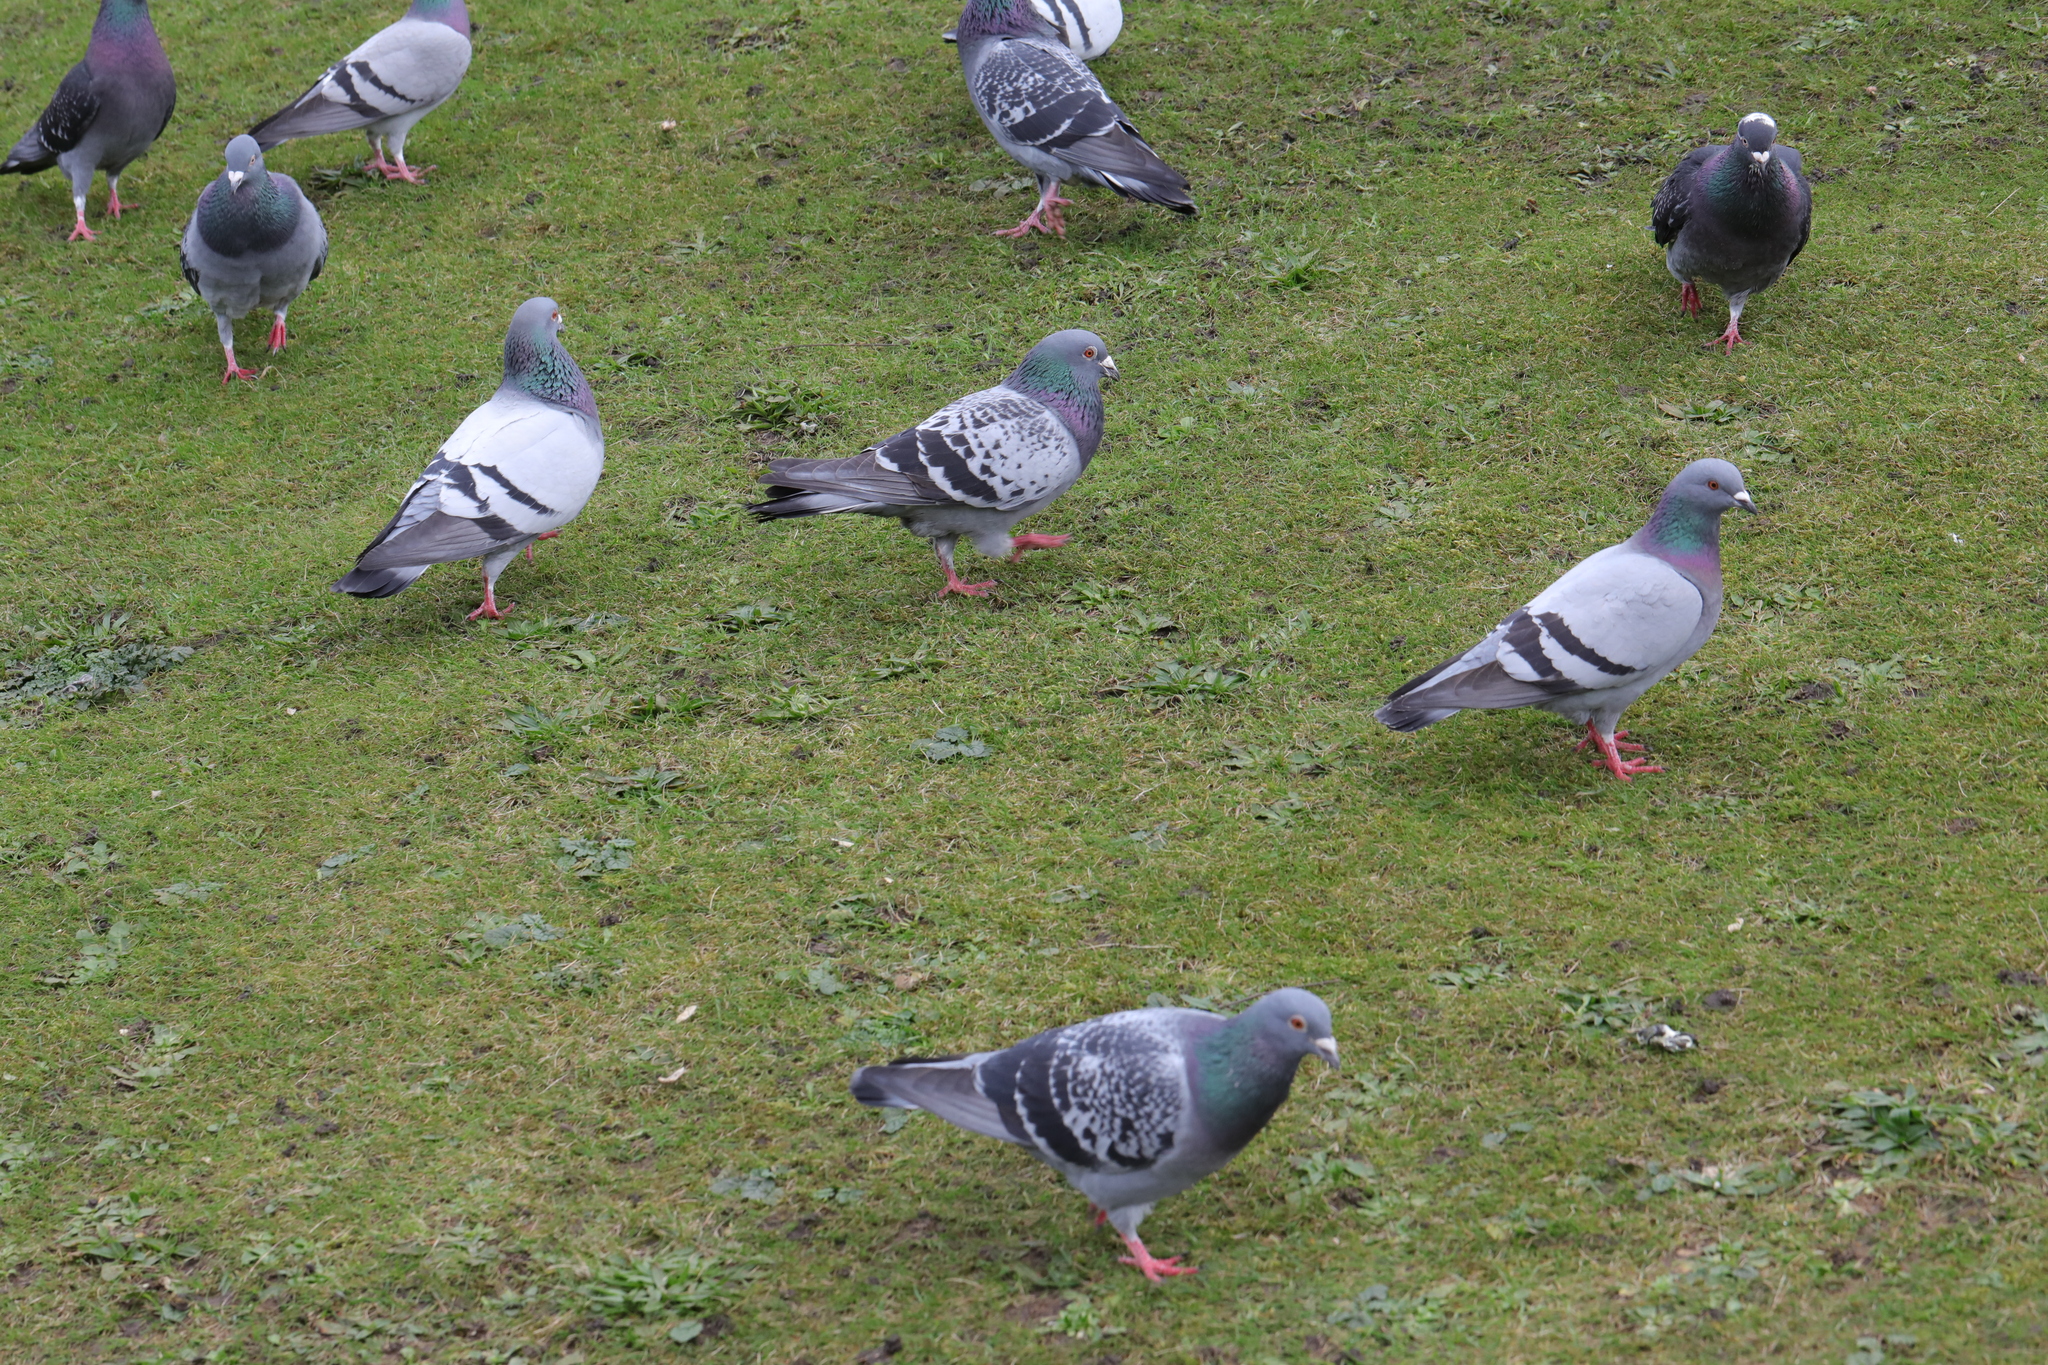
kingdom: Animalia
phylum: Chordata
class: Aves
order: Columbiformes
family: Columbidae
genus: Columba
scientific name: Columba livia
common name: Rock pigeon
